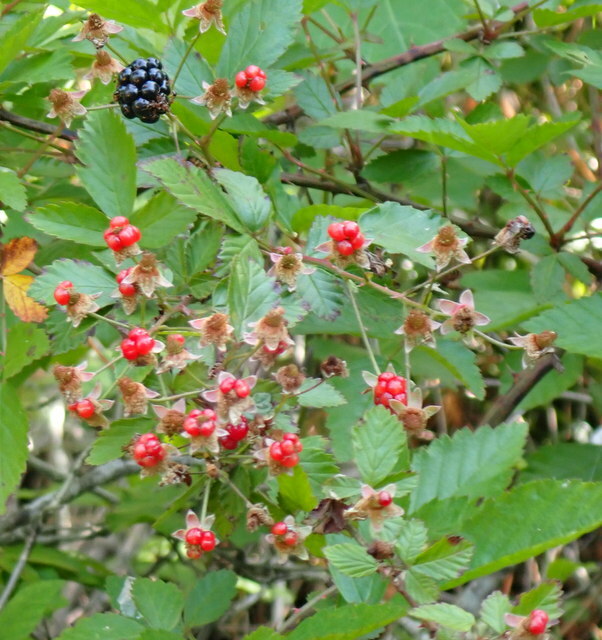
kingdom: Plantae
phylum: Tracheophyta
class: Magnoliopsida
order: Rosales
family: Rosaceae
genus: Rubus
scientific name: Rubus pensilvanicus
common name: Pennsylvania blackberry
